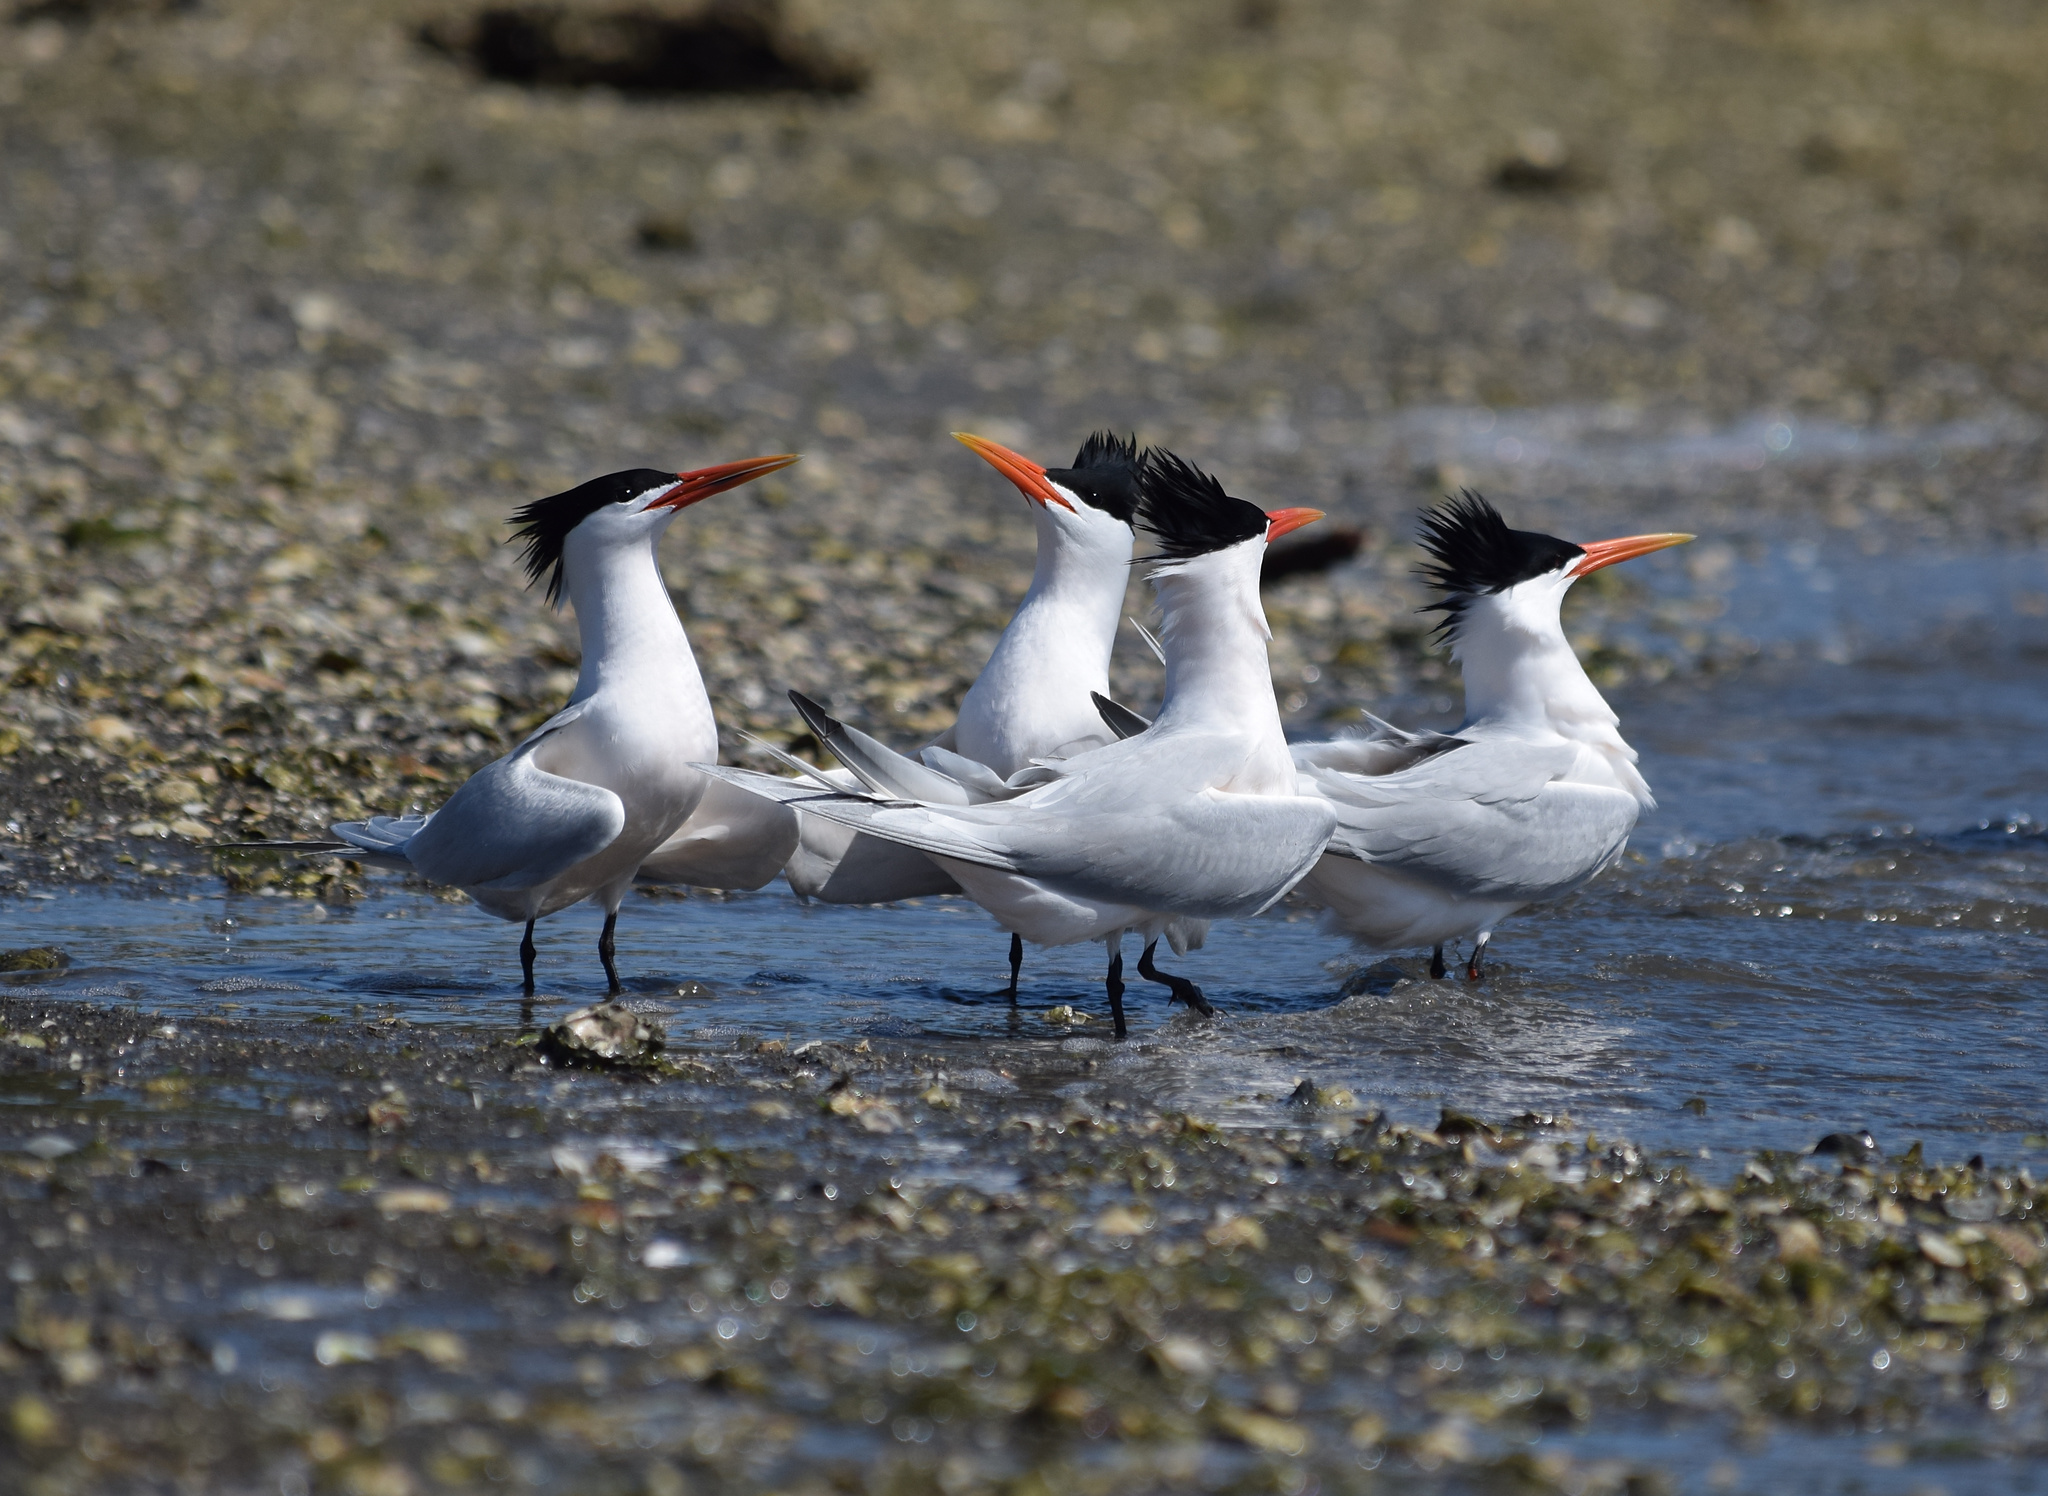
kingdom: Animalia
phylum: Chordata
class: Aves
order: Charadriiformes
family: Laridae
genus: Thalasseus
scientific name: Thalasseus elegans
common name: Elegant tern
